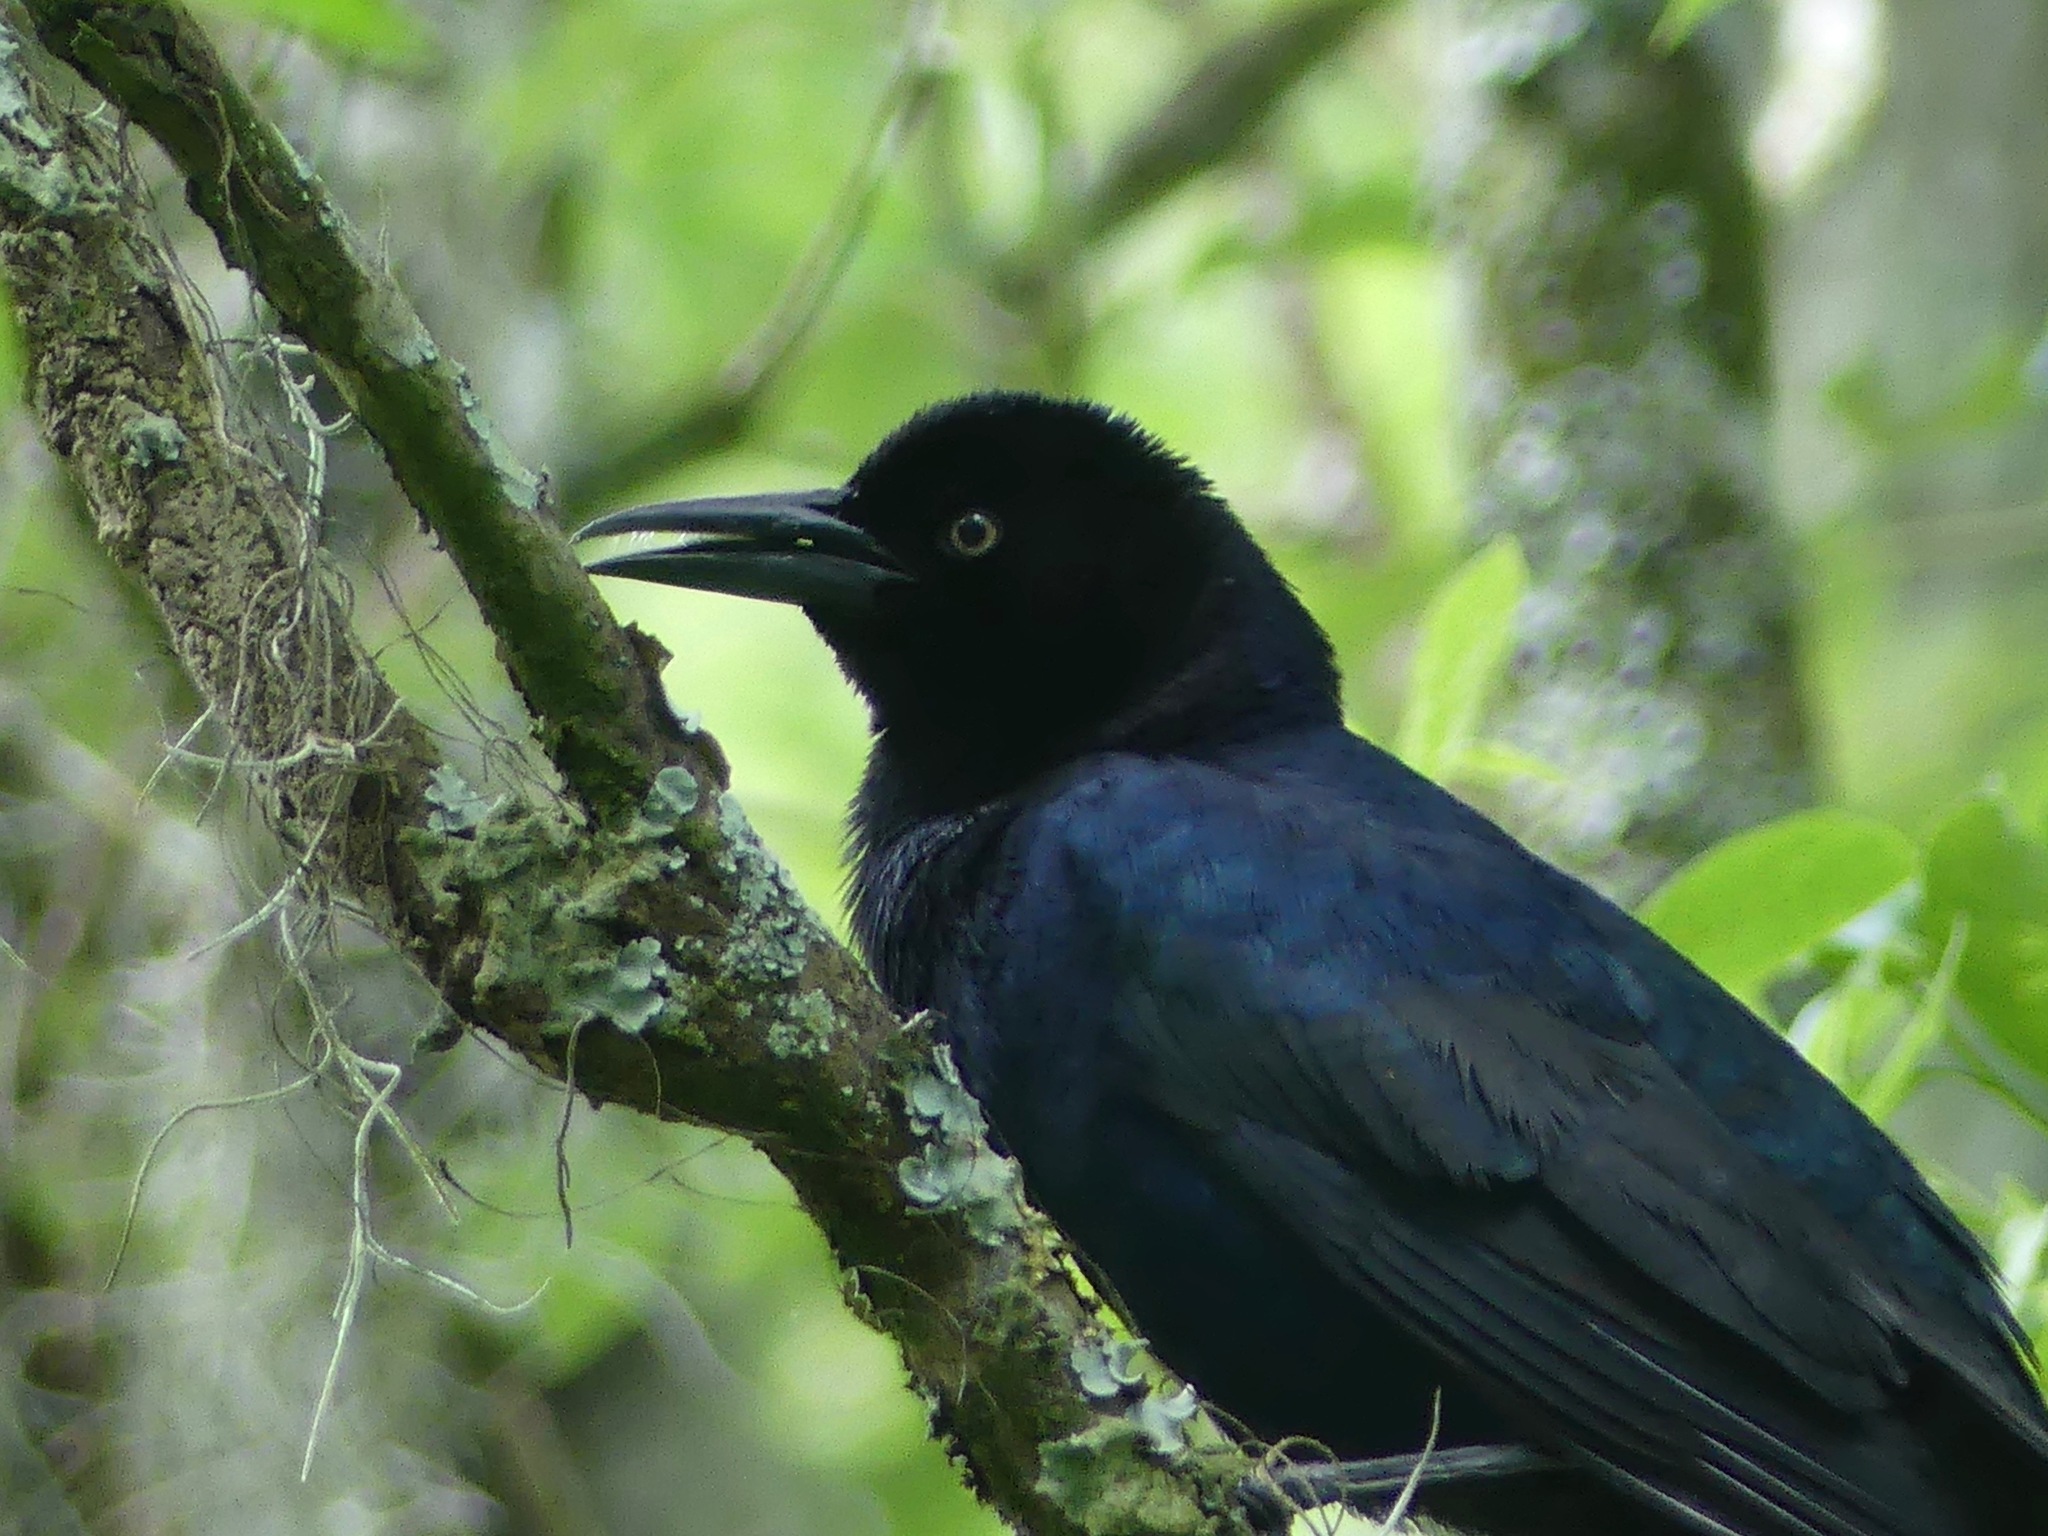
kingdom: Animalia
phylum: Chordata
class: Aves
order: Passeriformes
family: Icteridae
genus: Quiscalus
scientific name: Quiscalus major
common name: Boat-tailed grackle
